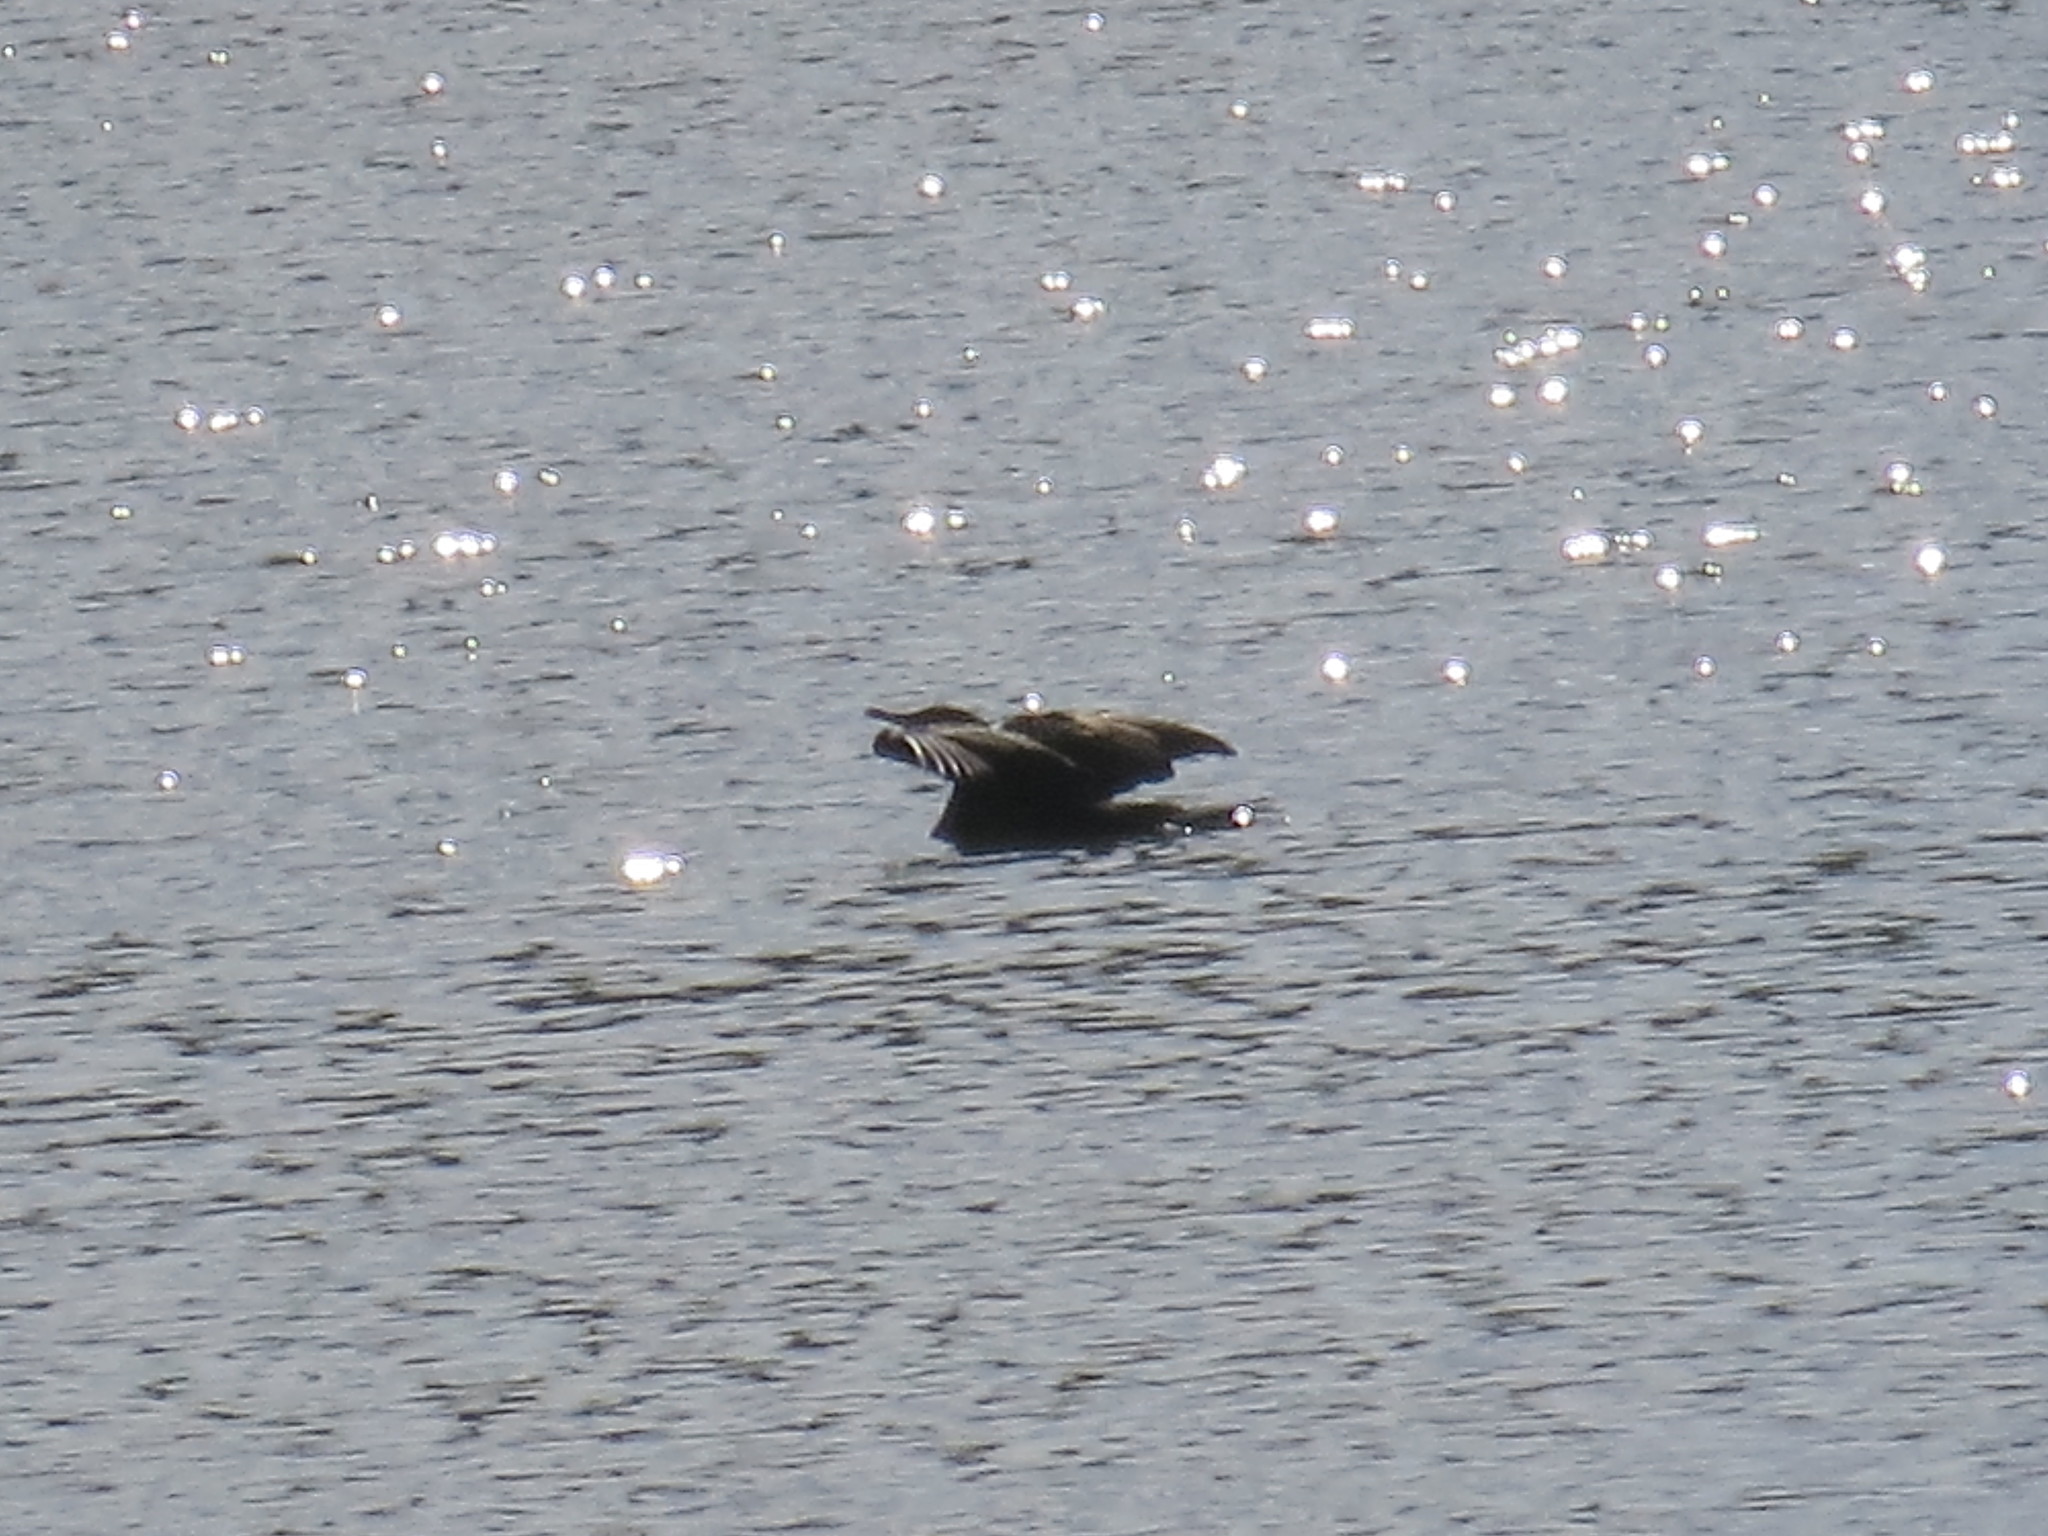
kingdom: Animalia
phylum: Chordata
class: Aves
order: Suliformes
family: Phalacrocoracidae
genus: Phalacrocorax
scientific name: Phalacrocorax auritus
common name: Double-crested cormorant
